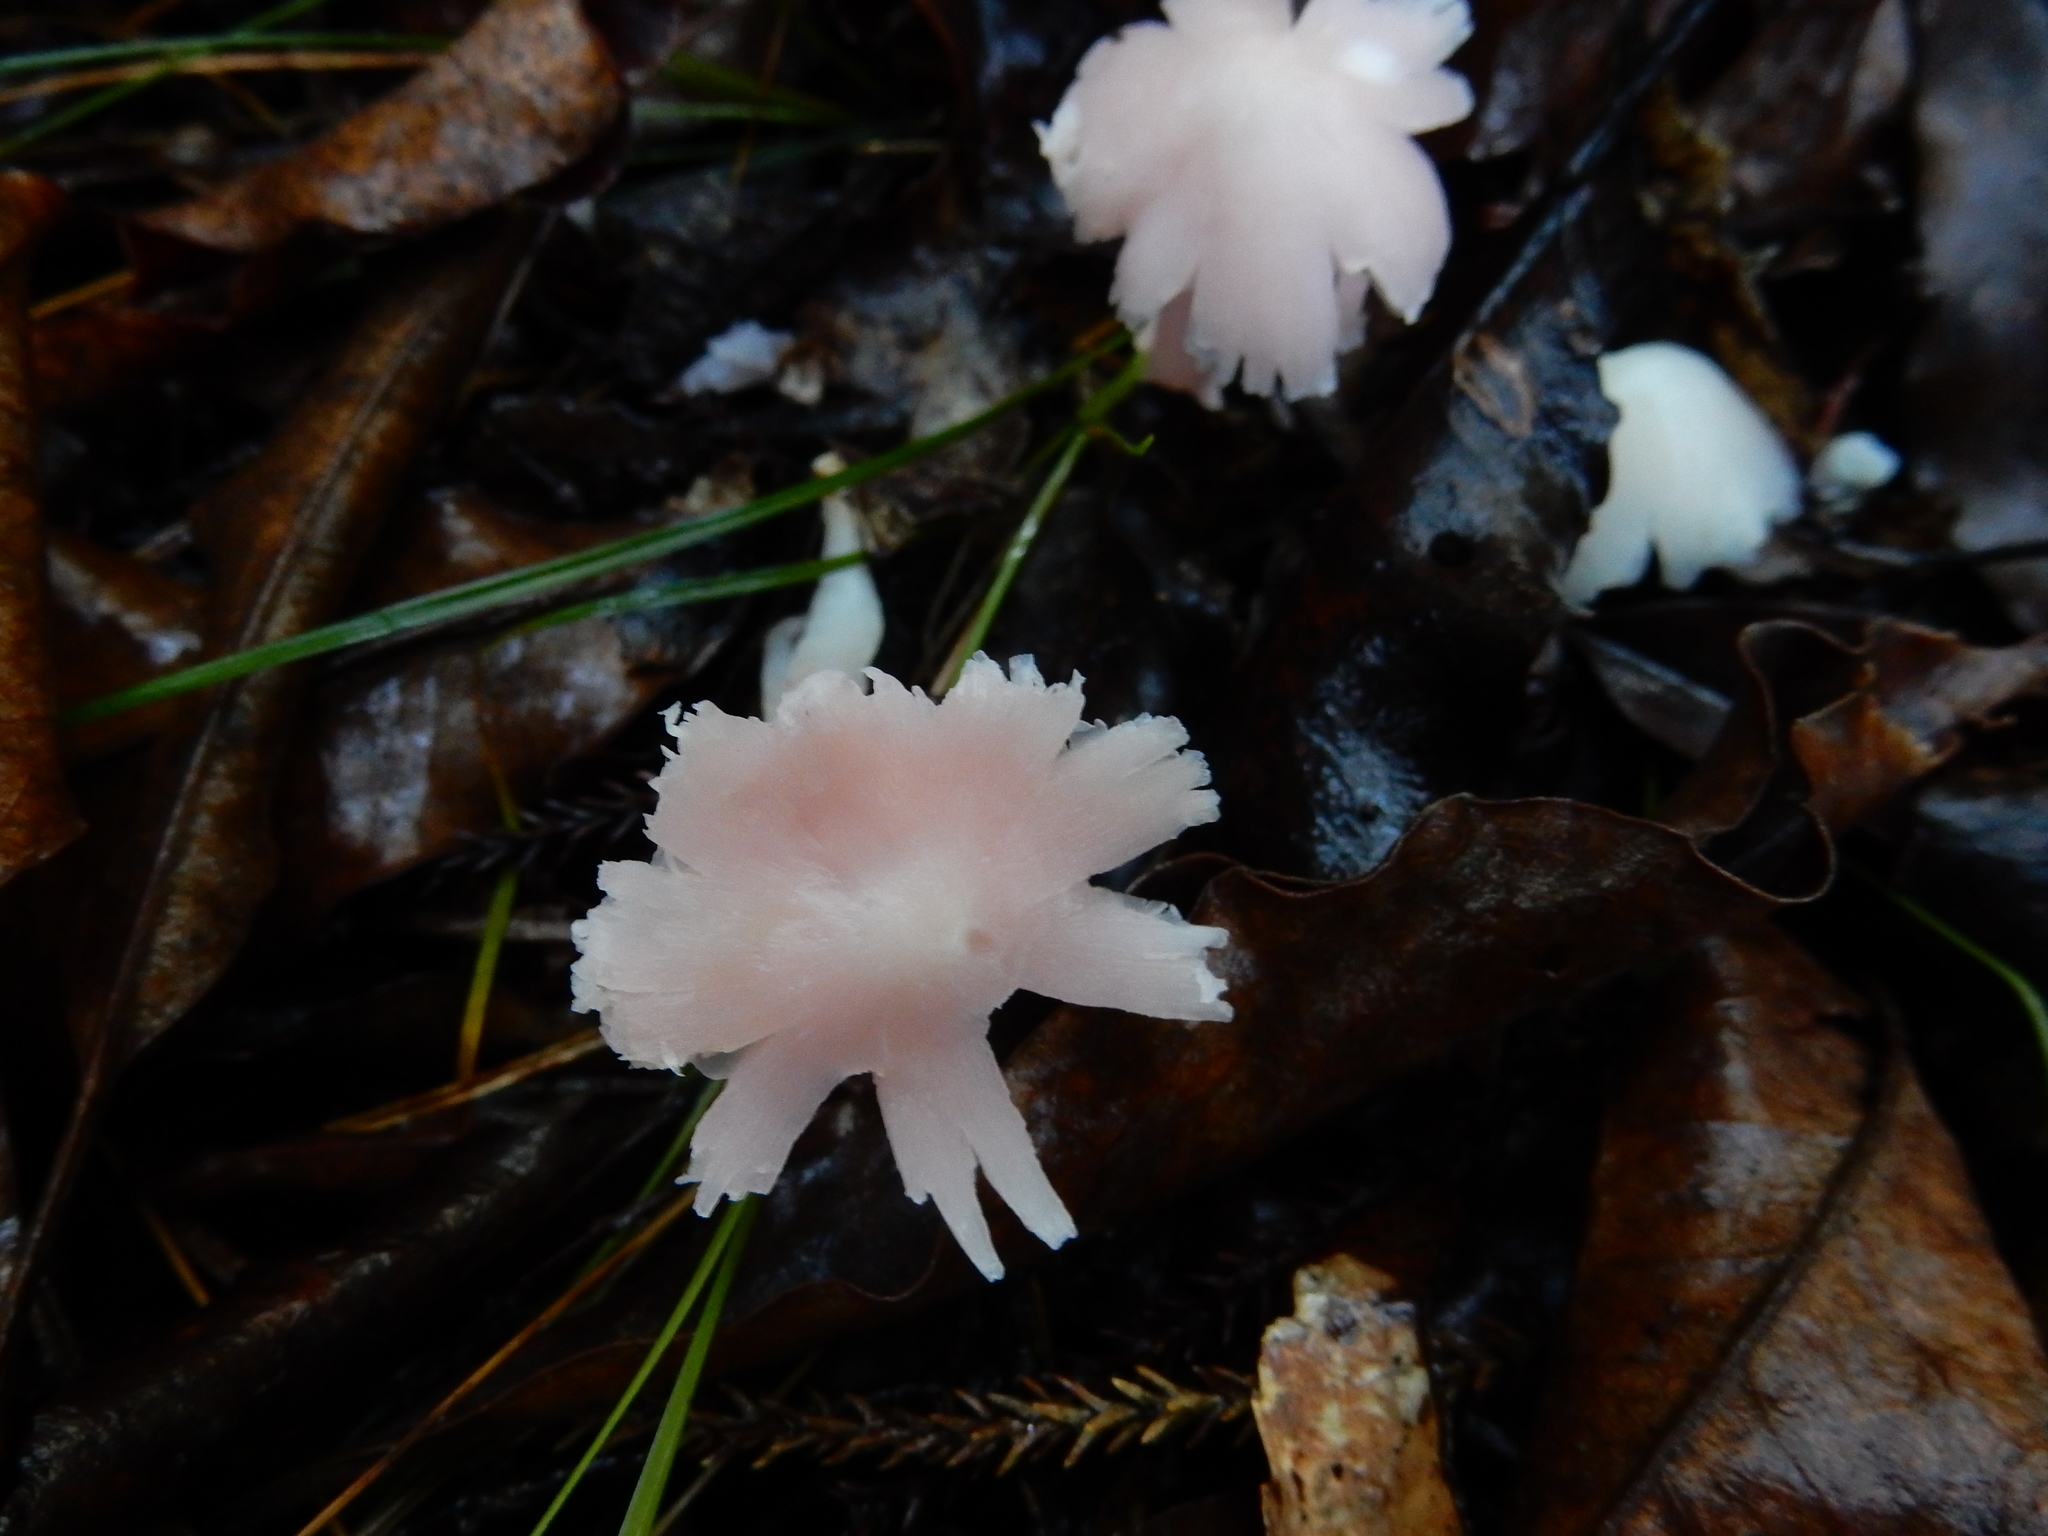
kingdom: Fungi
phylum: Basidiomycota
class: Agaricomycetes
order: Agaricales
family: Hygrophoraceae
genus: Humidicutis
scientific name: Humidicutis
